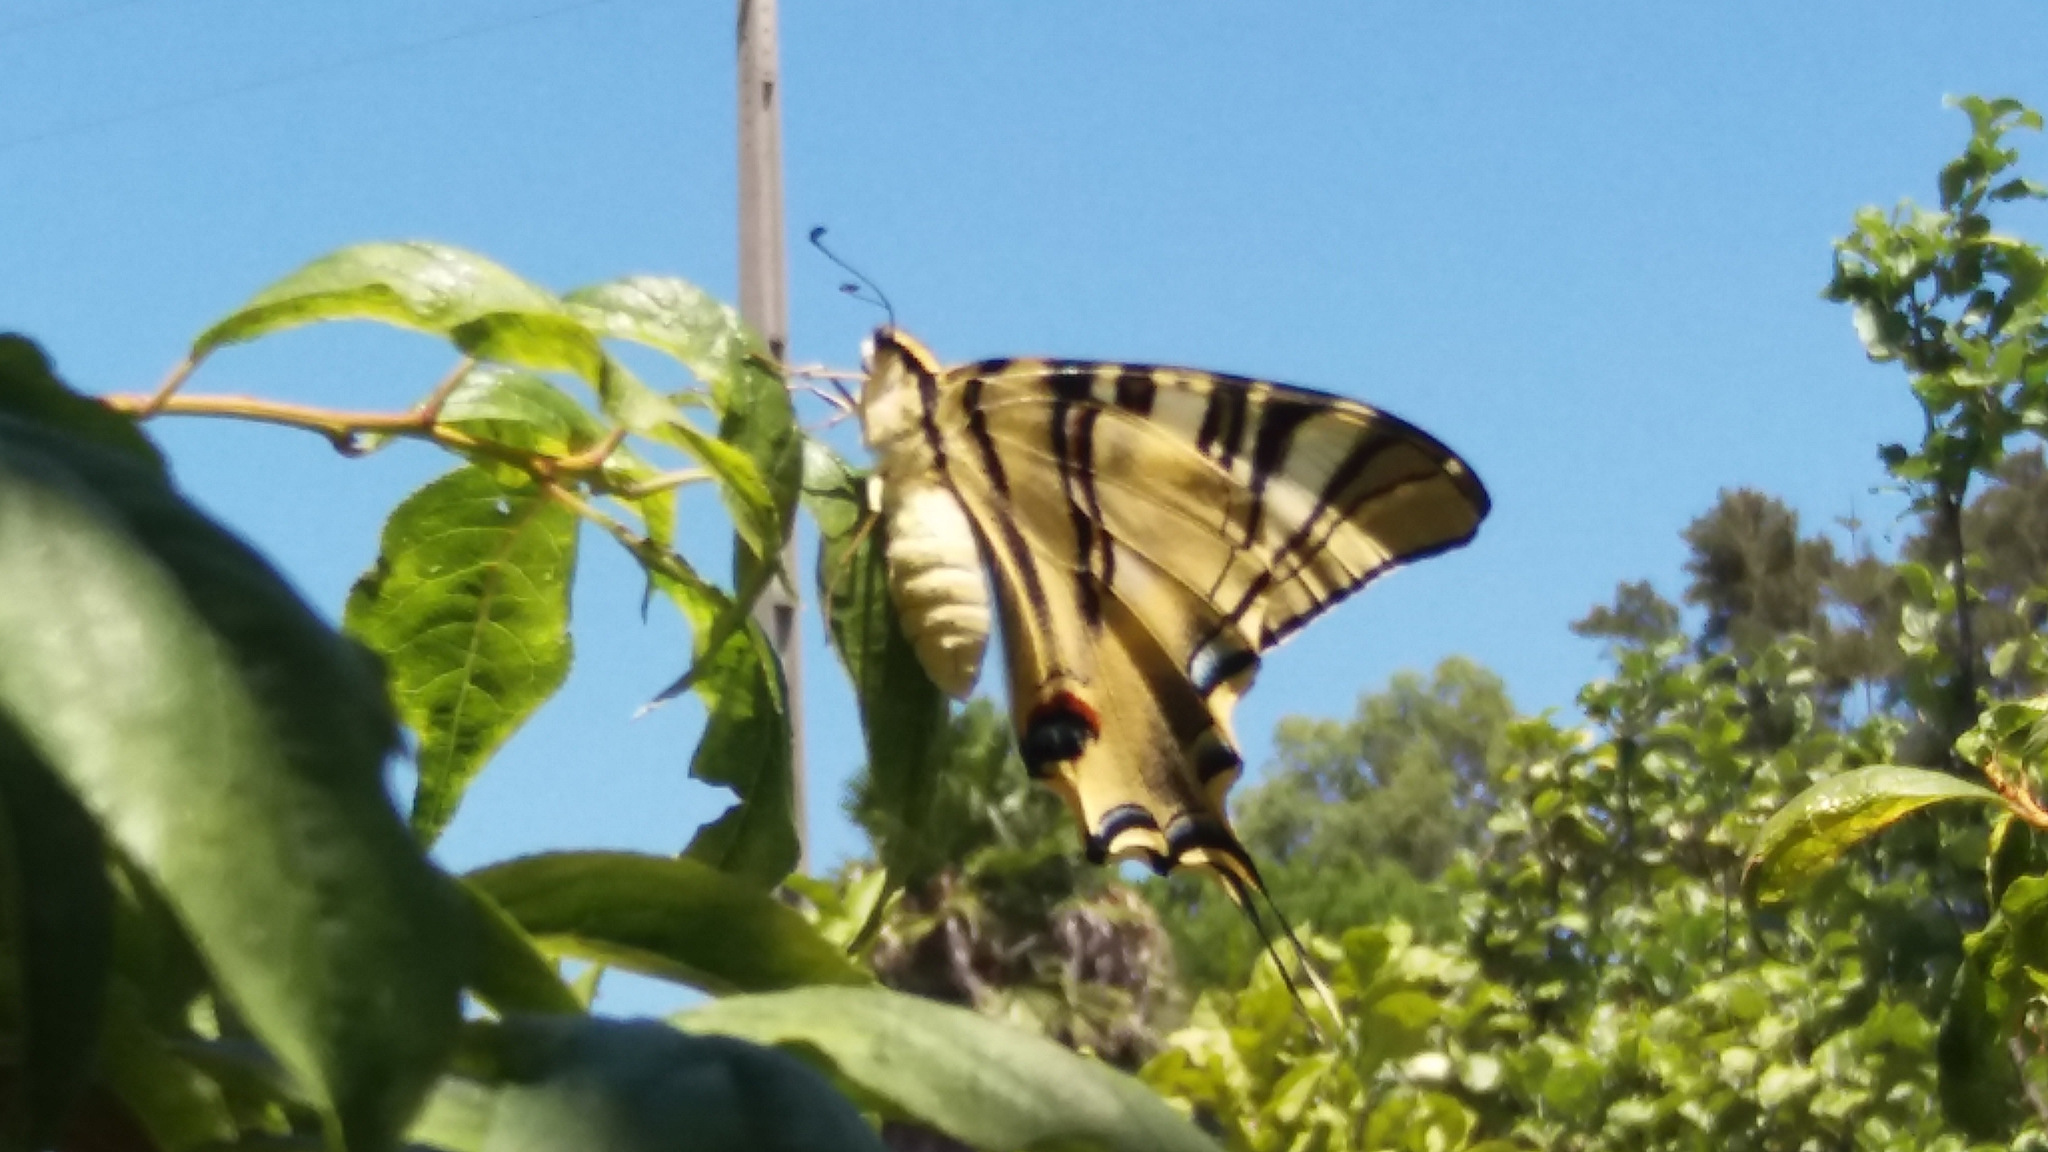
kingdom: Animalia
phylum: Arthropoda
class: Insecta
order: Lepidoptera
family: Papilionidae
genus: Iphiclides
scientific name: Iphiclides feisthamelii
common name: Iberian scarce swallowtail
